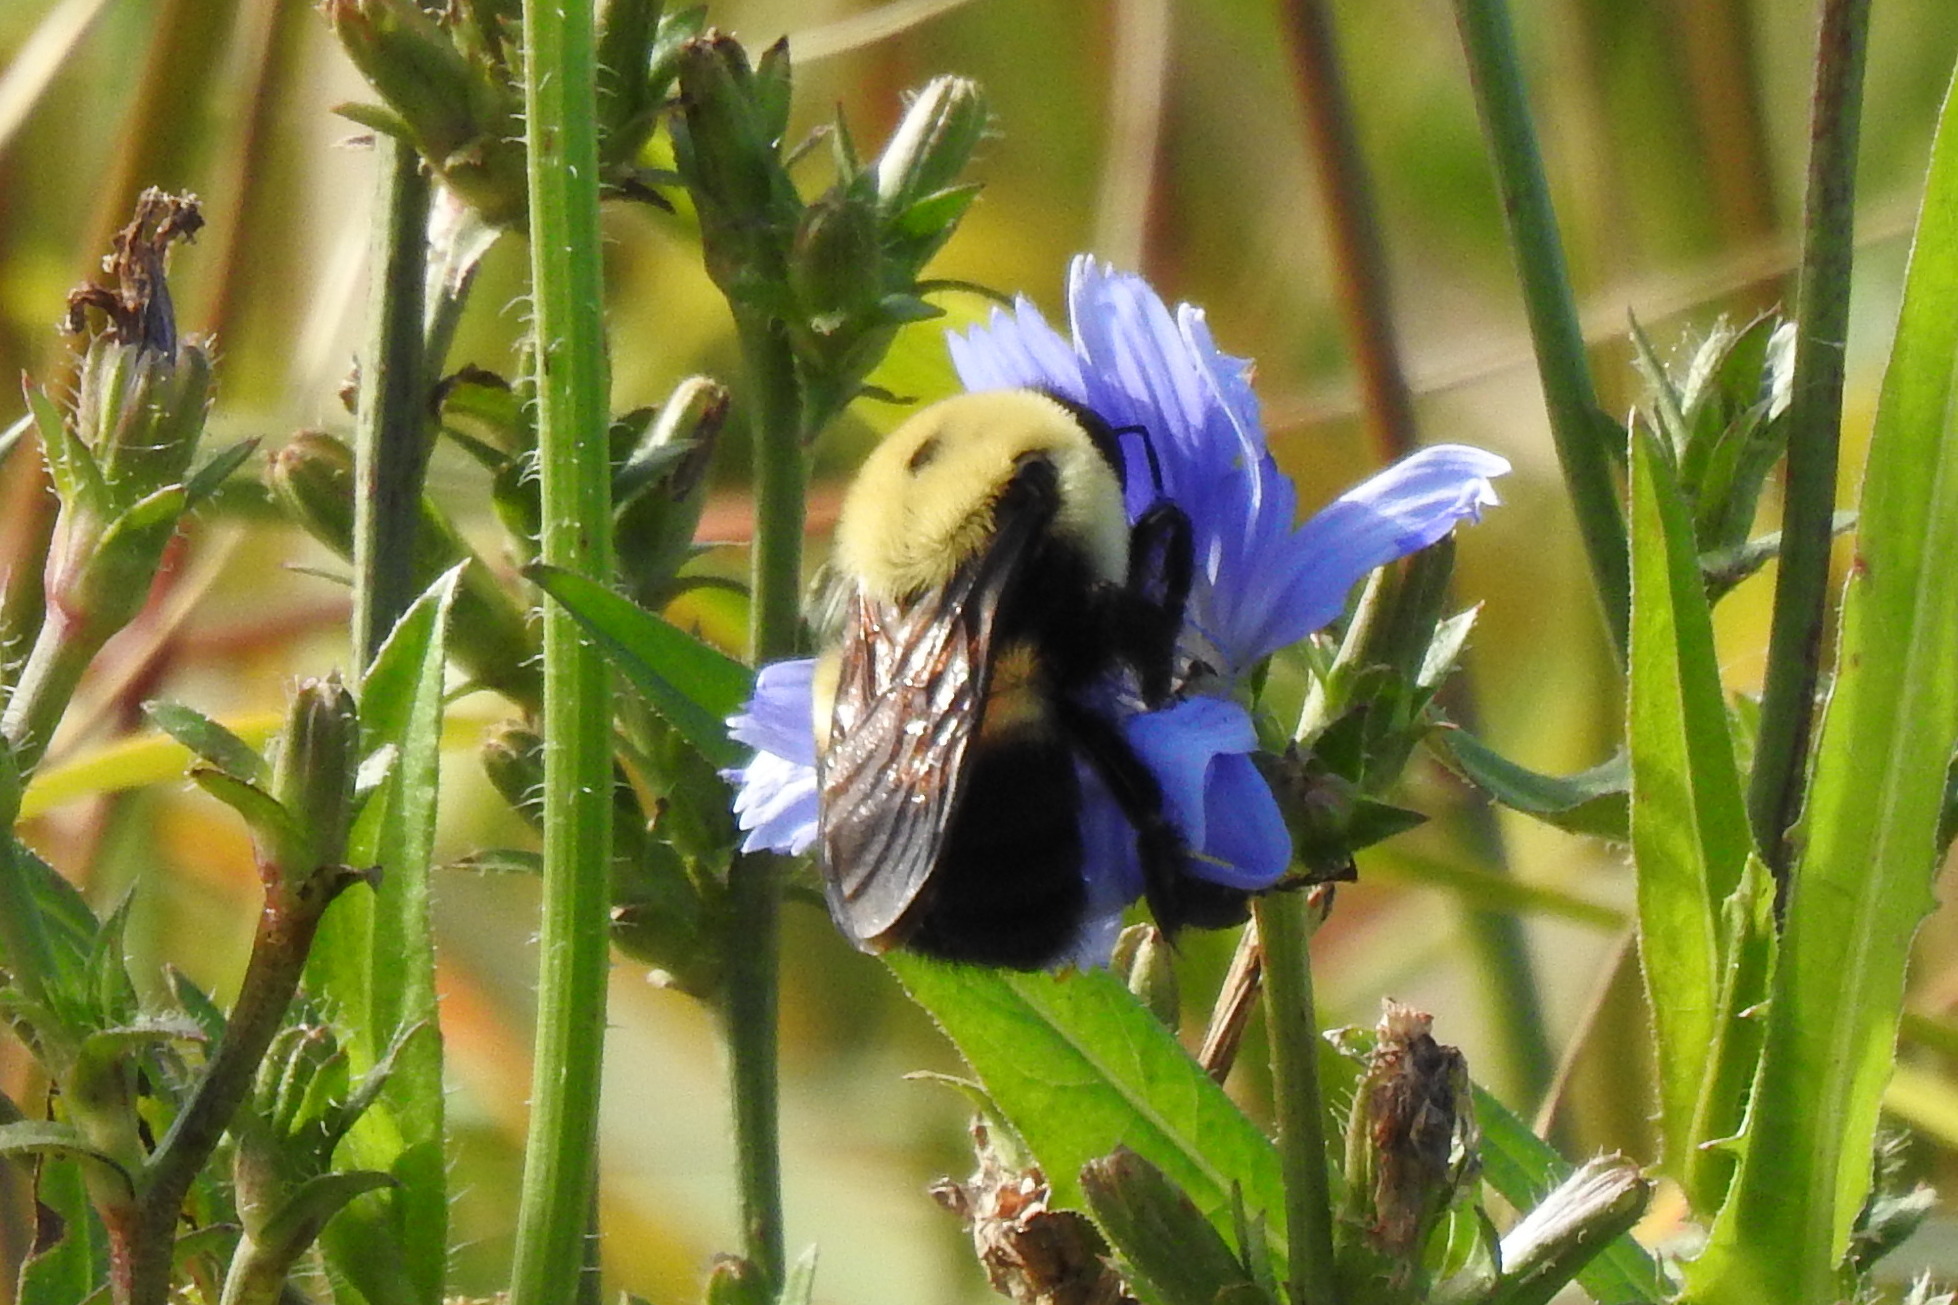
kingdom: Animalia
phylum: Arthropoda
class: Insecta
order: Hymenoptera
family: Apidae
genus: Bombus
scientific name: Bombus griseocollis
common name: Brown-belted bumble bee
